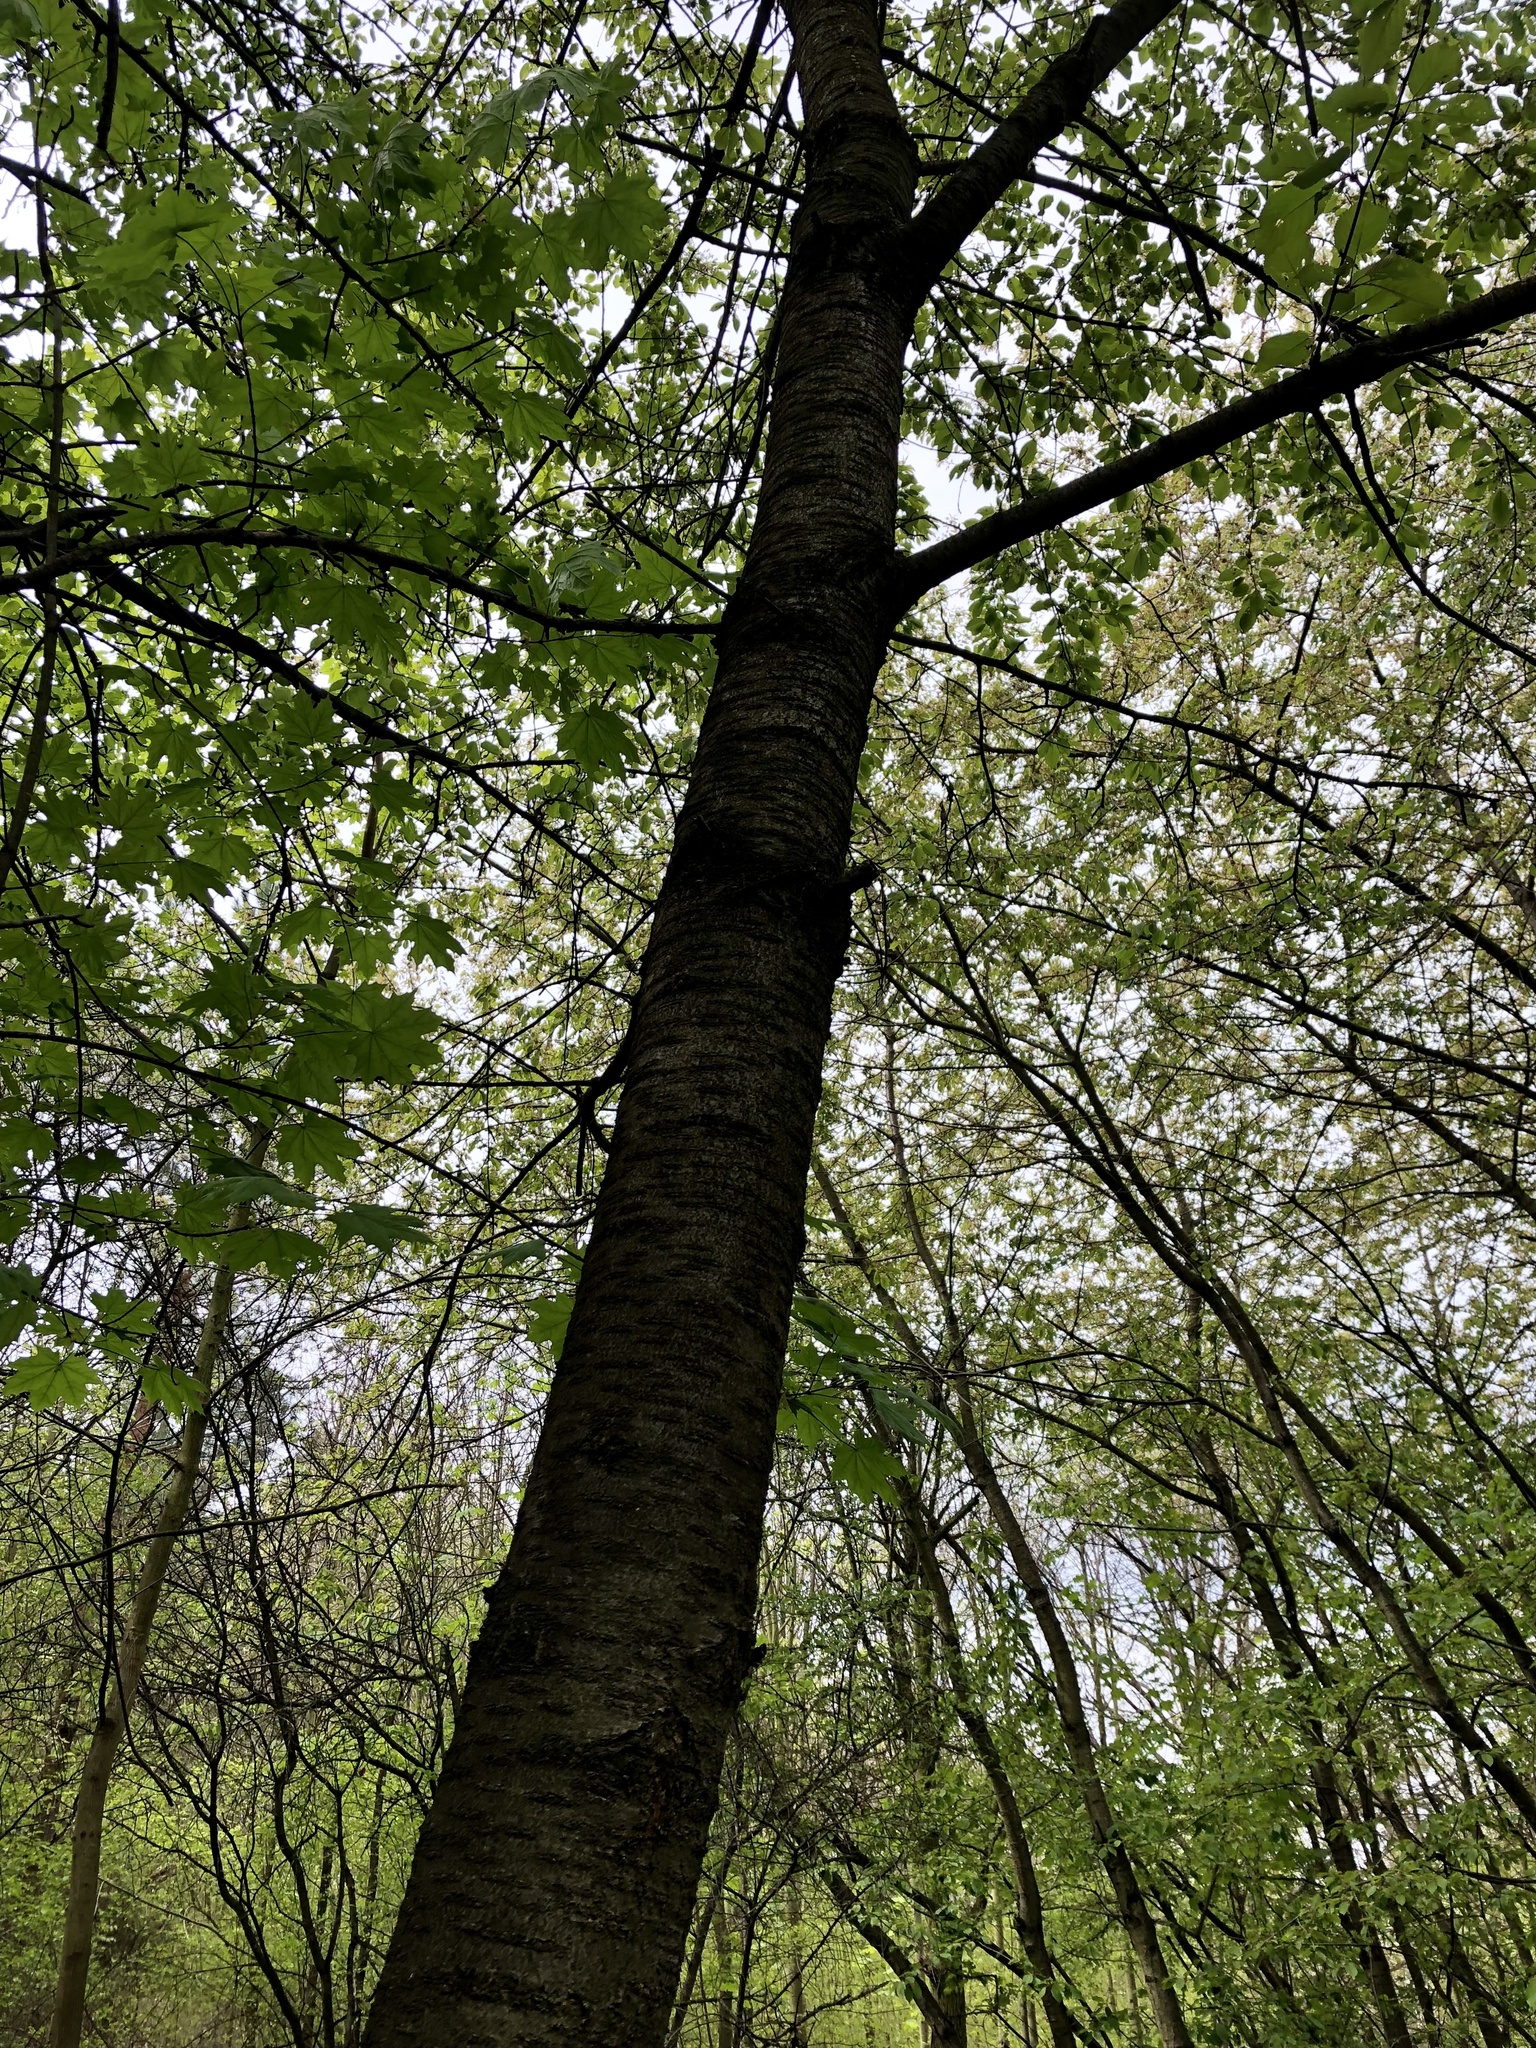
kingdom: Plantae
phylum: Tracheophyta
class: Magnoliopsida
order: Rosales
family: Rosaceae
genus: Prunus
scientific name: Prunus avium
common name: Sweet cherry
